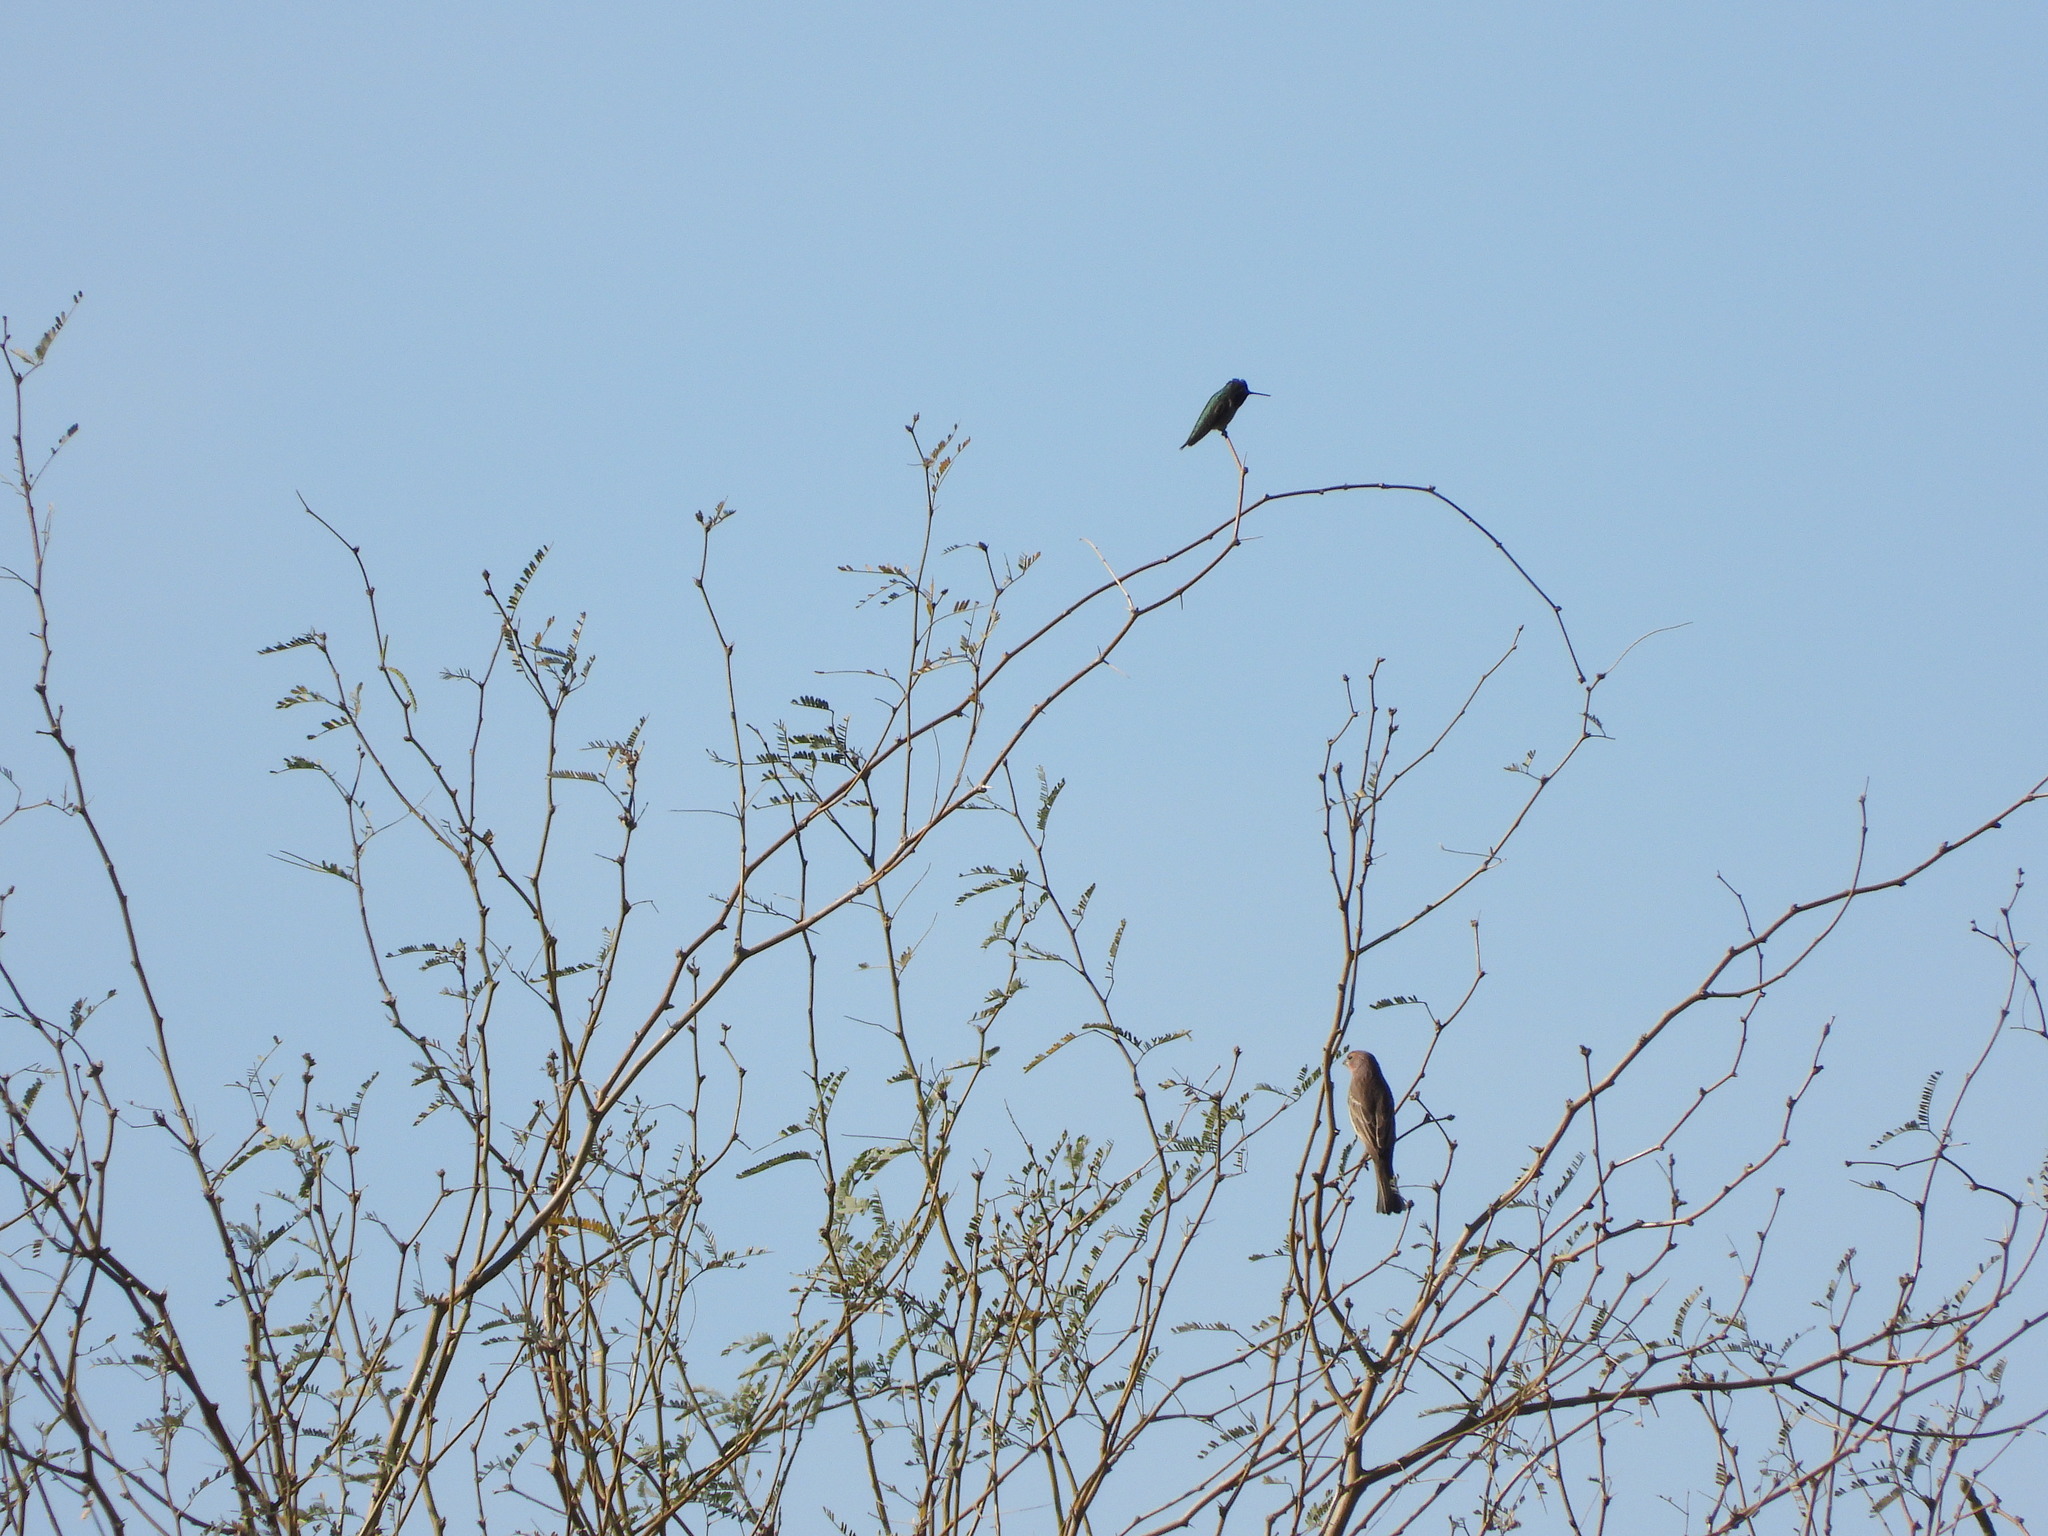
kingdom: Animalia
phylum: Chordata
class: Aves
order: Passeriformes
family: Fringillidae
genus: Haemorhous
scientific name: Haemorhous mexicanus
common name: House finch
